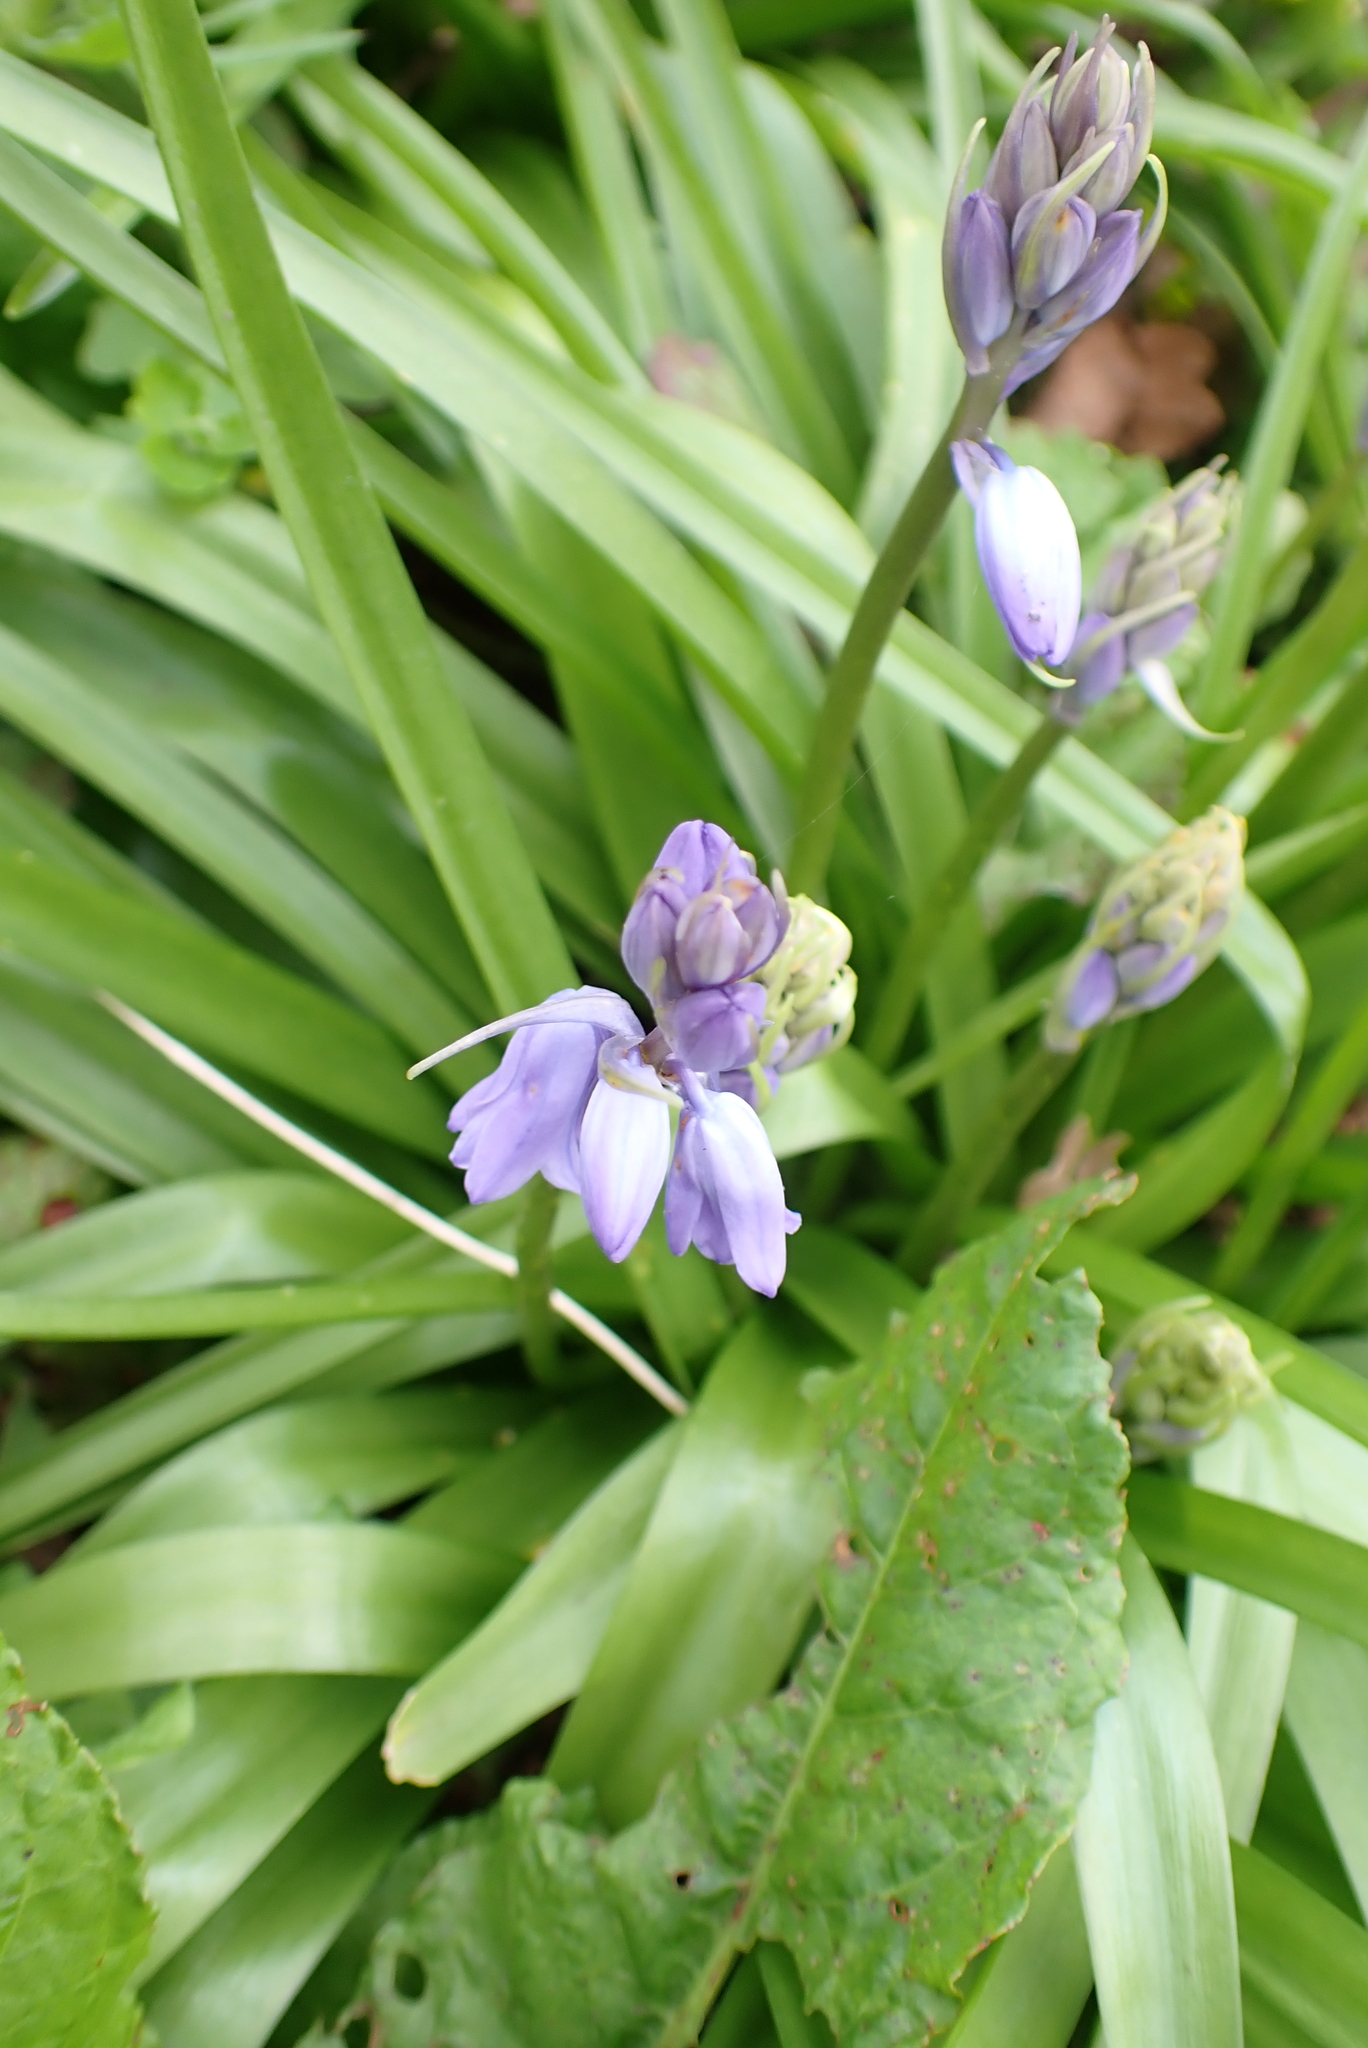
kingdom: Plantae
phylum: Tracheophyta
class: Liliopsida
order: Asparagales
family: Asparagaceae
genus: Hyacinthoides
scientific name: Hyacinthoides massartiana
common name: Hyacinthoides
